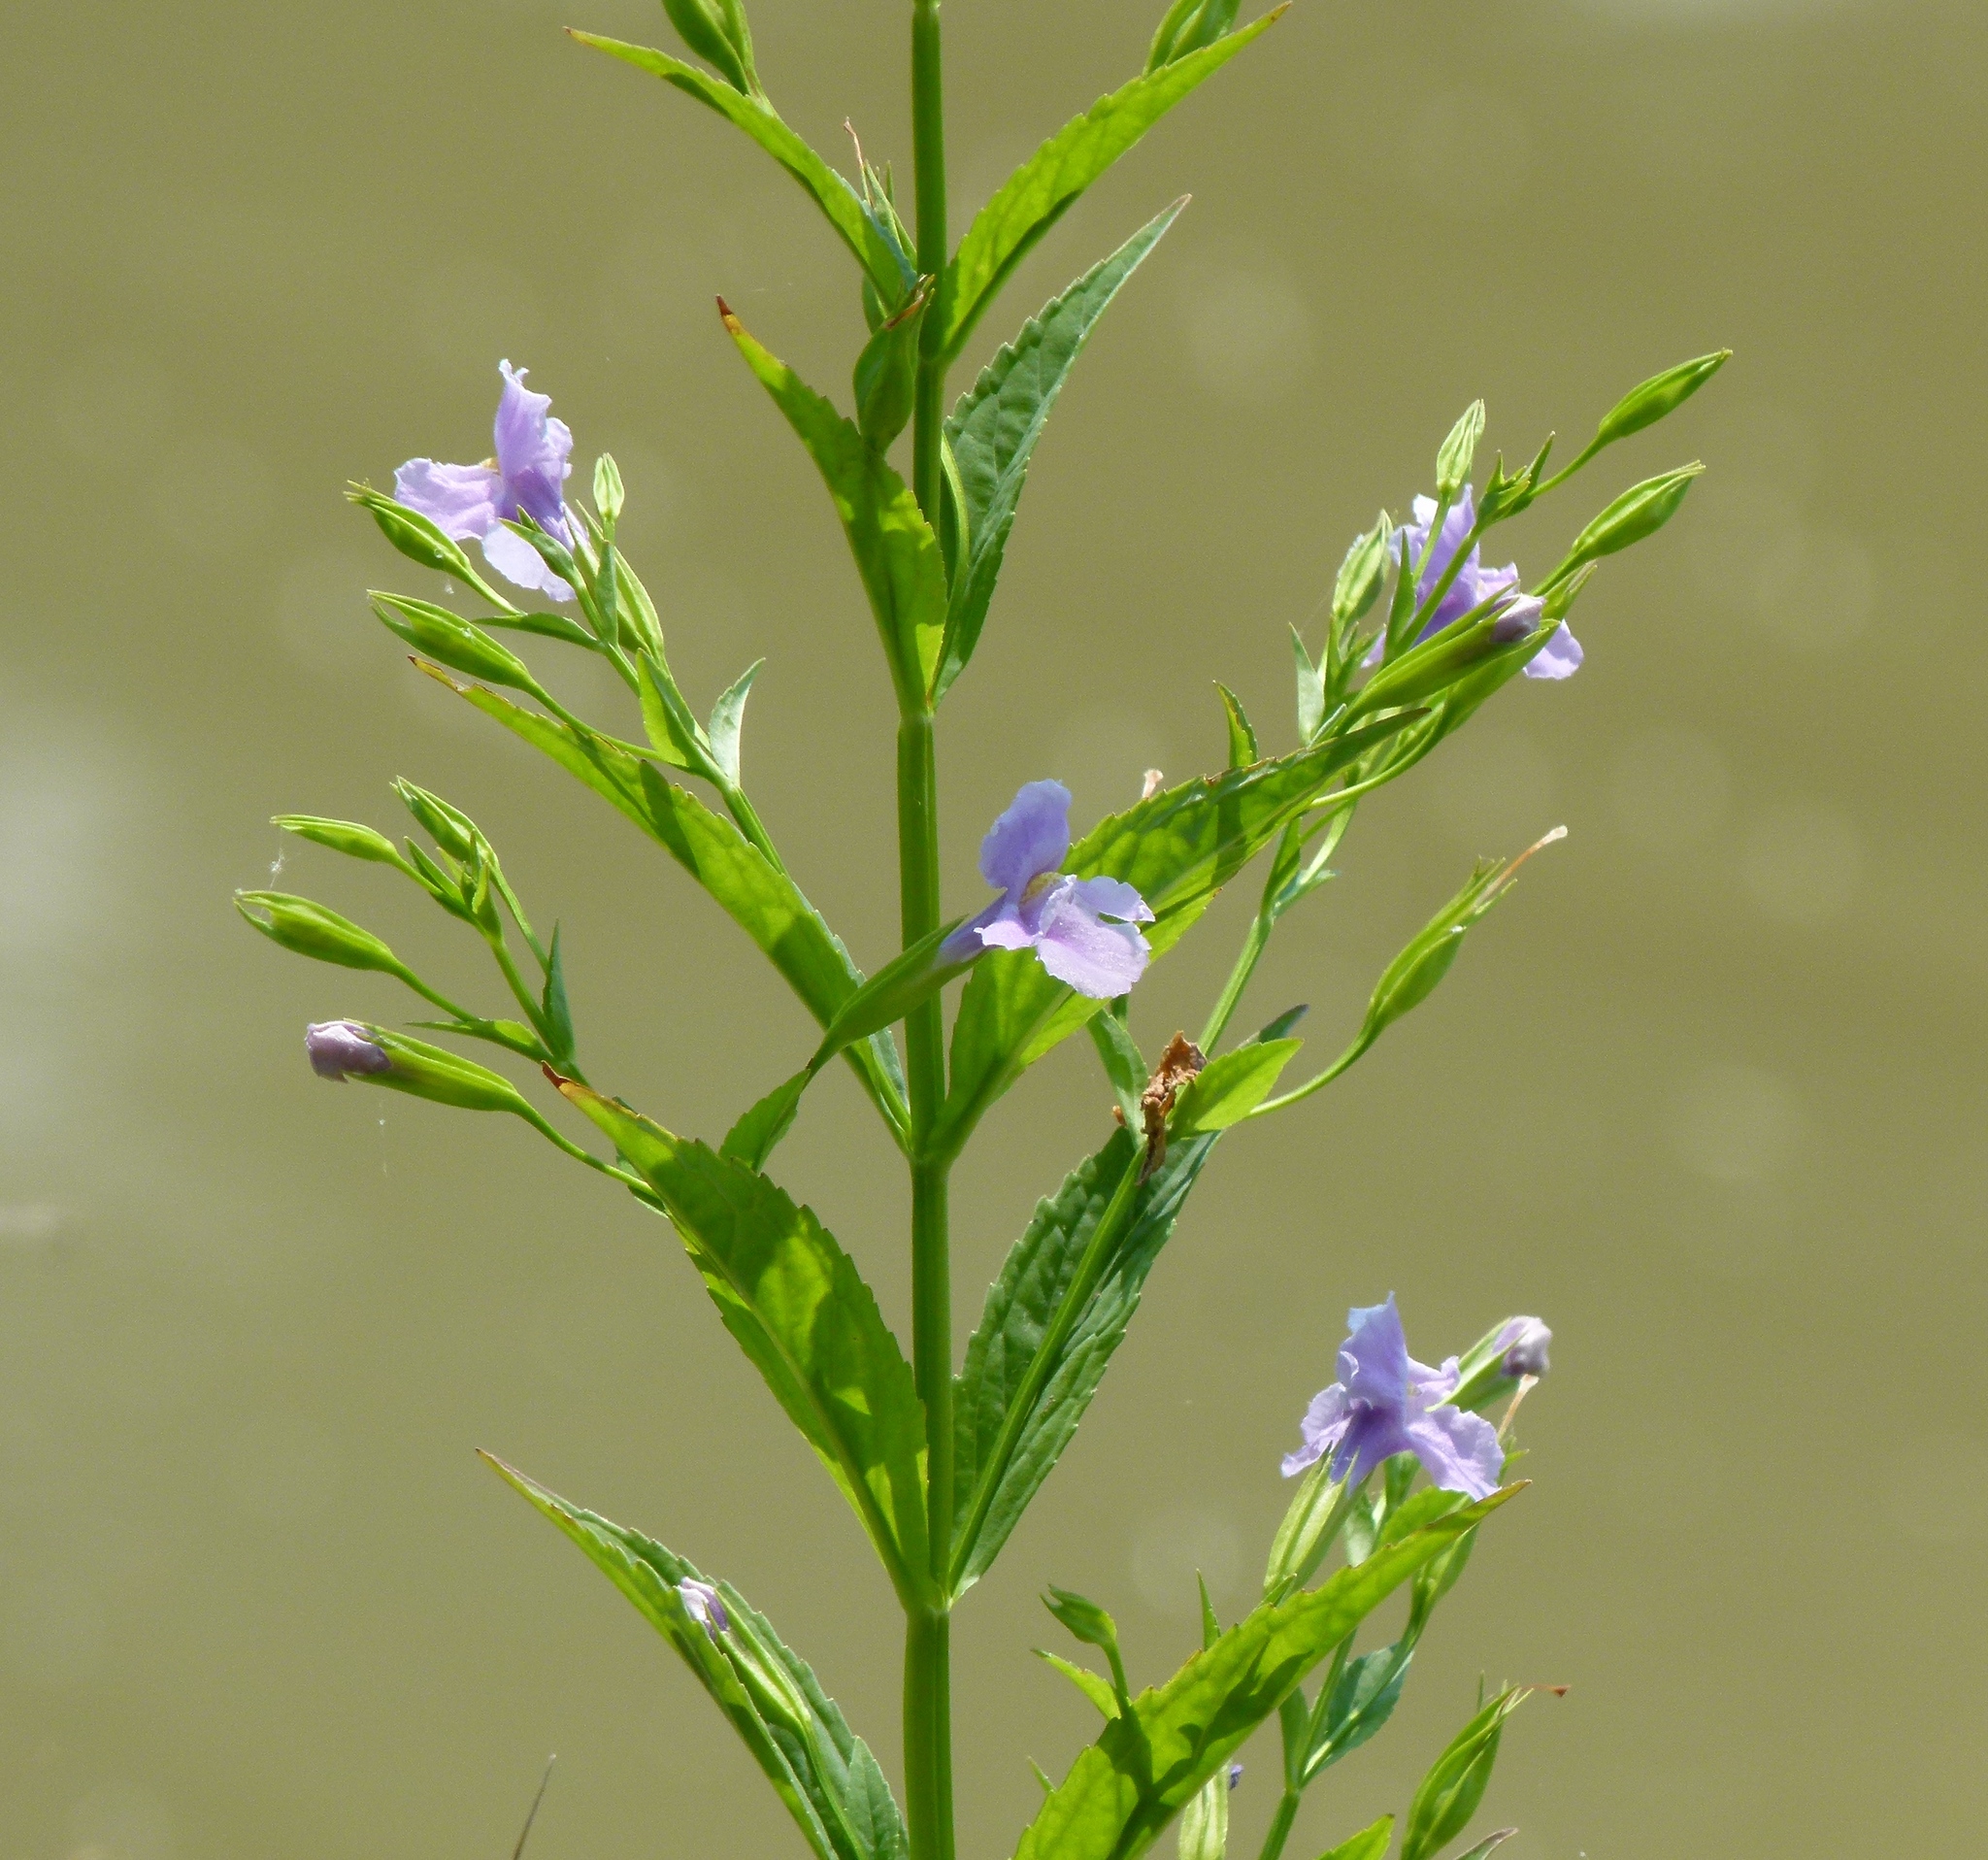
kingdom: Plantae
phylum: Tracheophyta
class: Magnoliopsida
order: Lamiales
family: Phrymaceae
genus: Mimulus
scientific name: Mimulus ringens
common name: Allegheny monkeyflower
